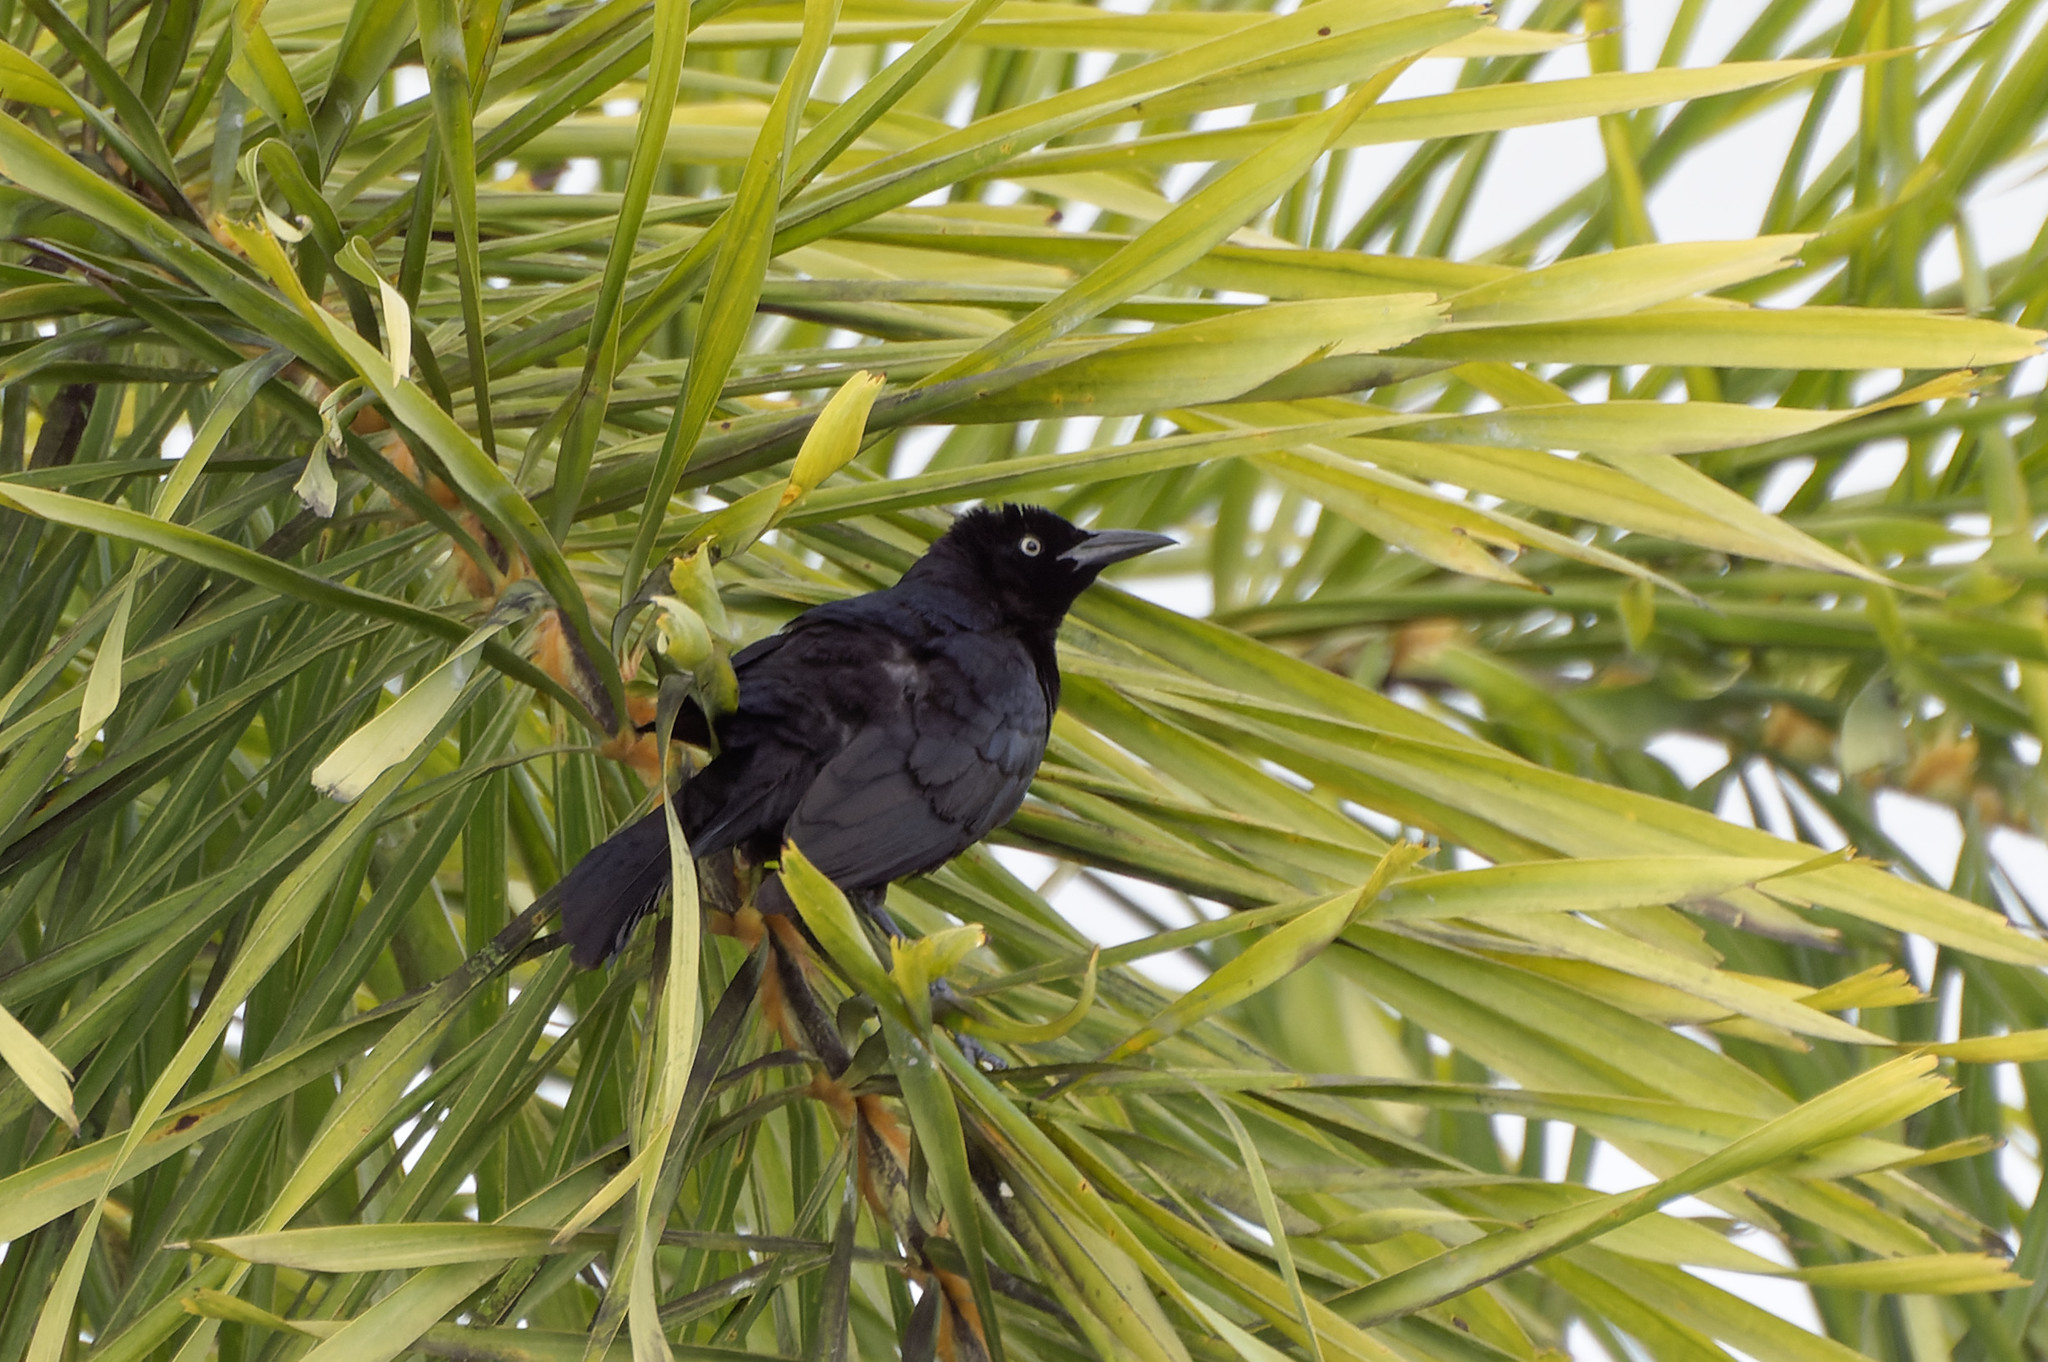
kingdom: Animalia
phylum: Chordata
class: Aves
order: Passeriformes
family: Icteridae
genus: Quiscalus
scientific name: Quiscalus lugubris
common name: Carib grackle
